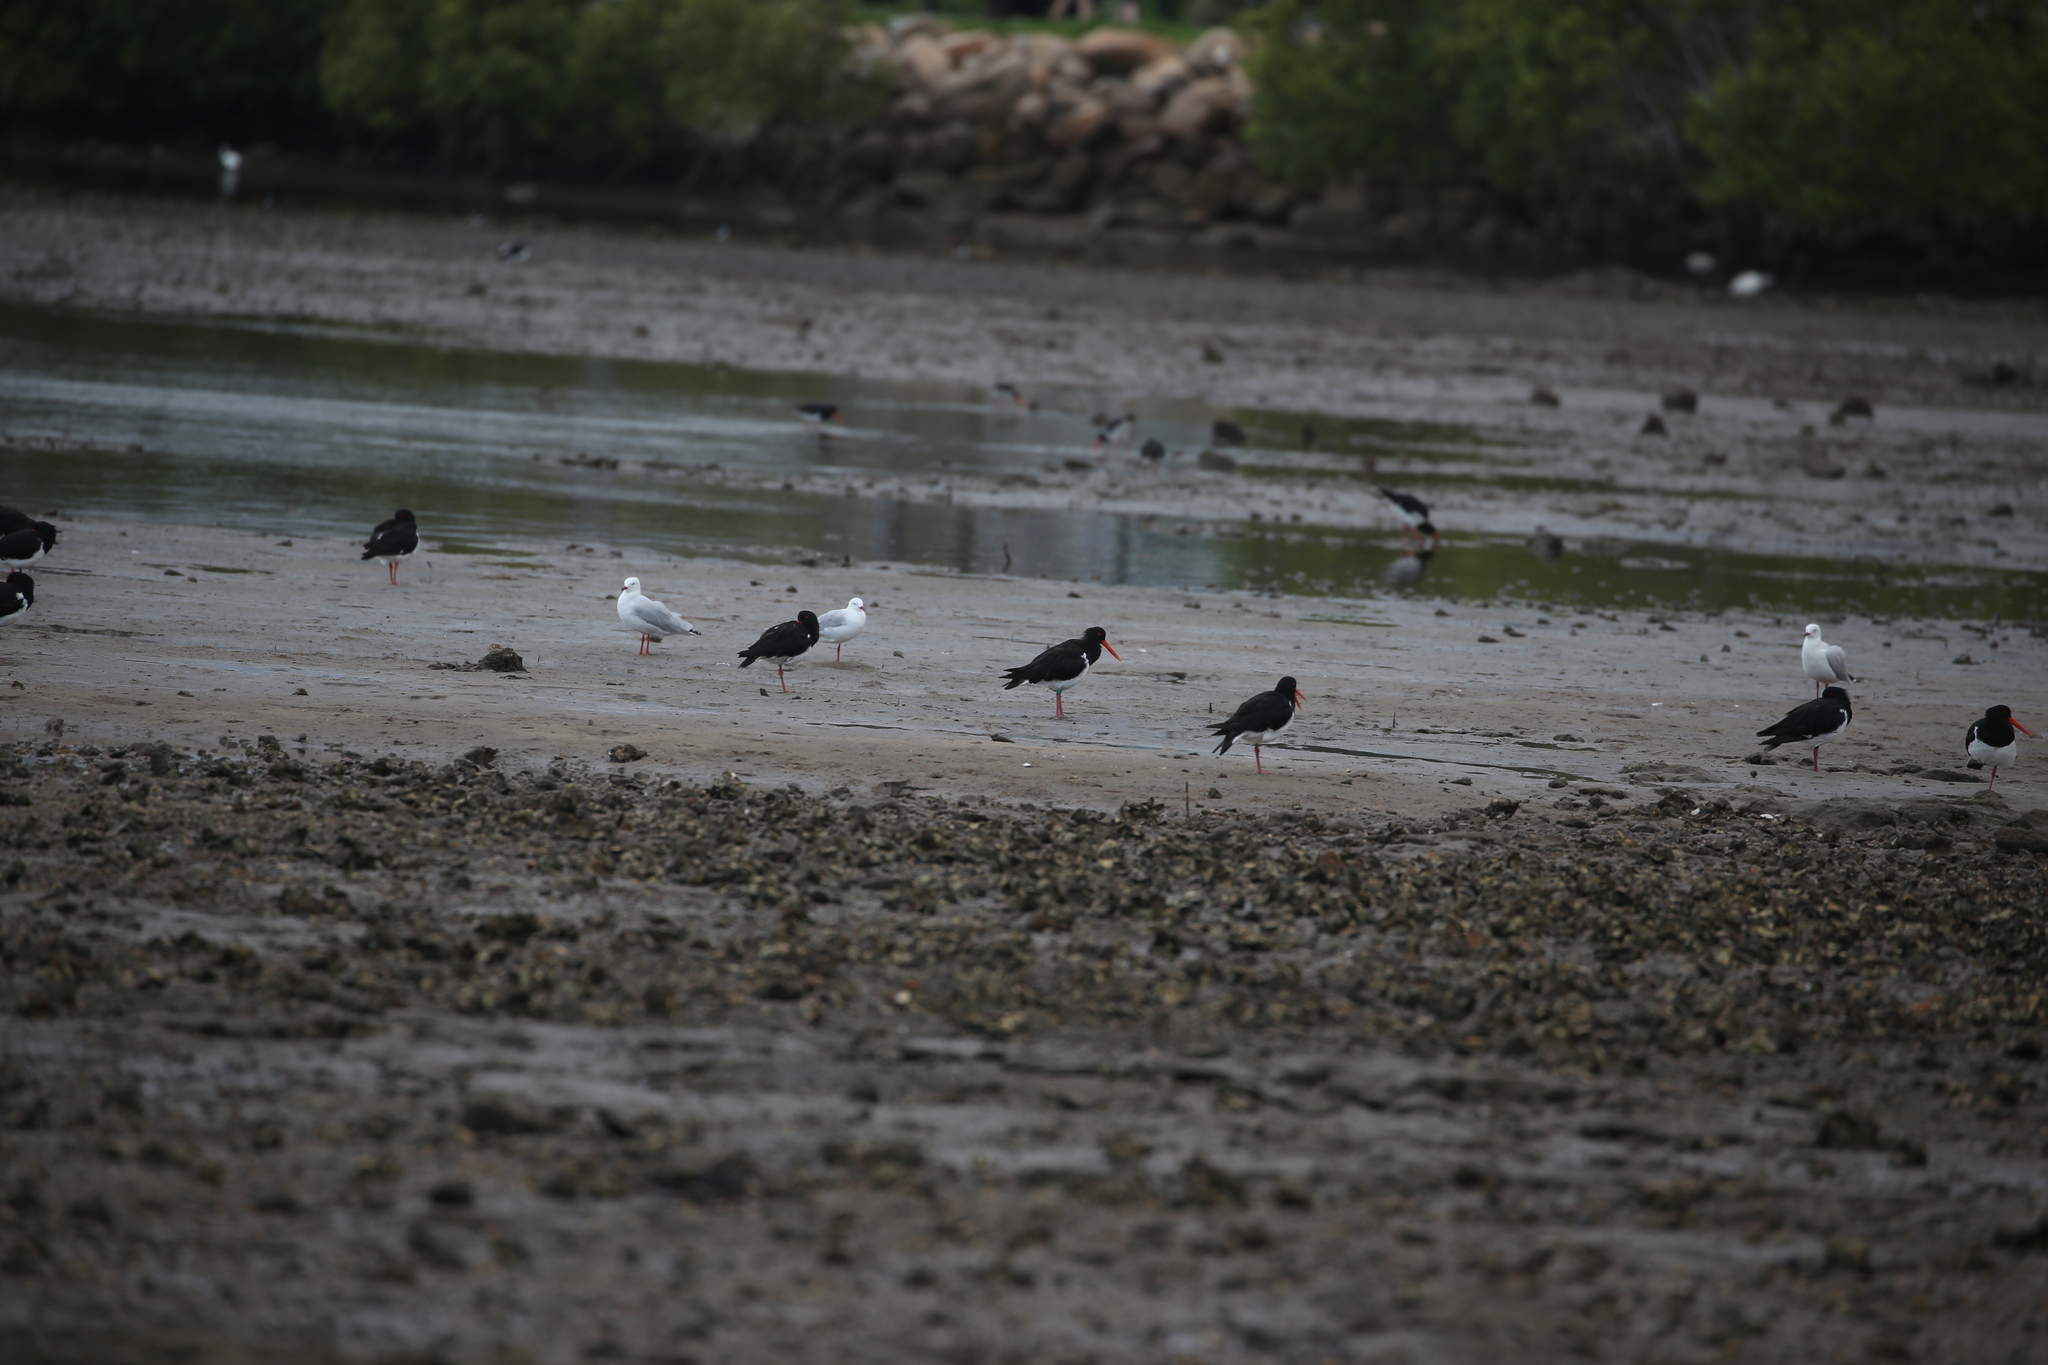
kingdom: Animalia
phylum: Chordata
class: Aves
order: Charadriiformes
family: Haematopodidae
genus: Haematopus
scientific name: Haematopus longirostris
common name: Pied oystercatcher
